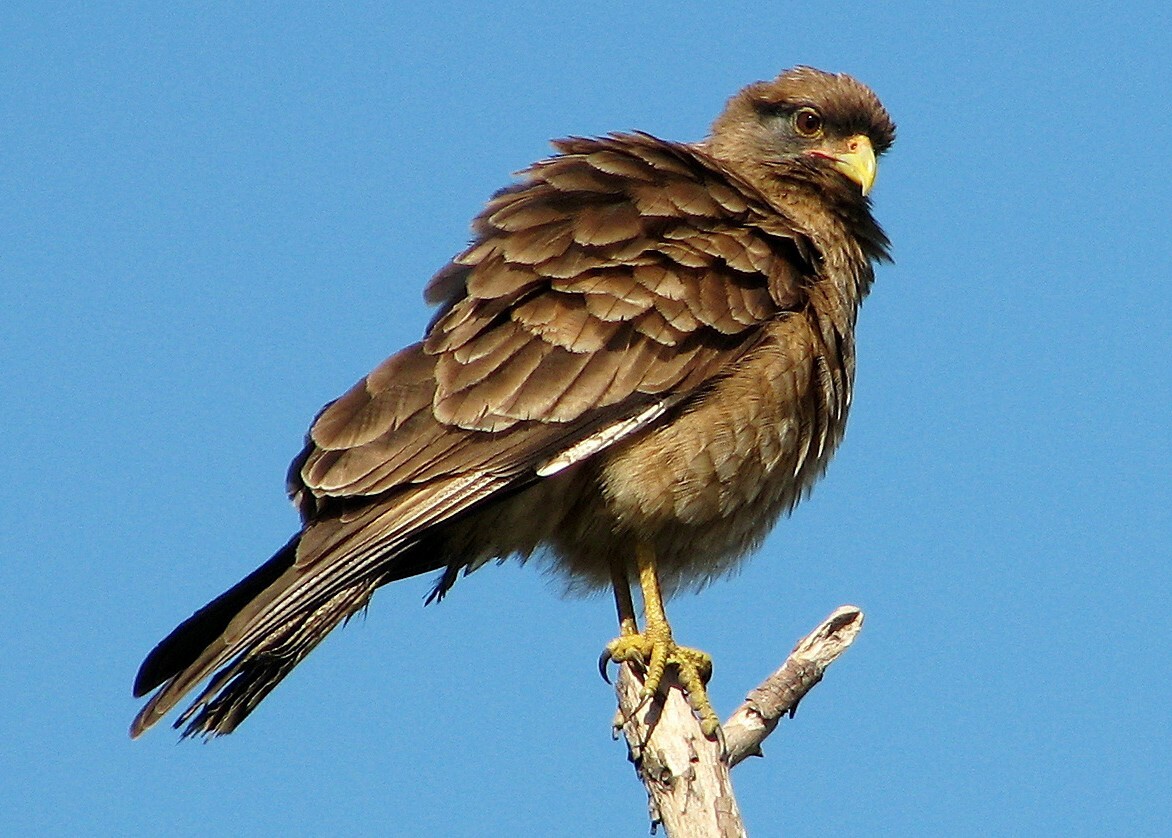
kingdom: Animalia
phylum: Chordata
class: Aves
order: Falconiformes
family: Falconidae
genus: Daptrius
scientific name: Daptrius
